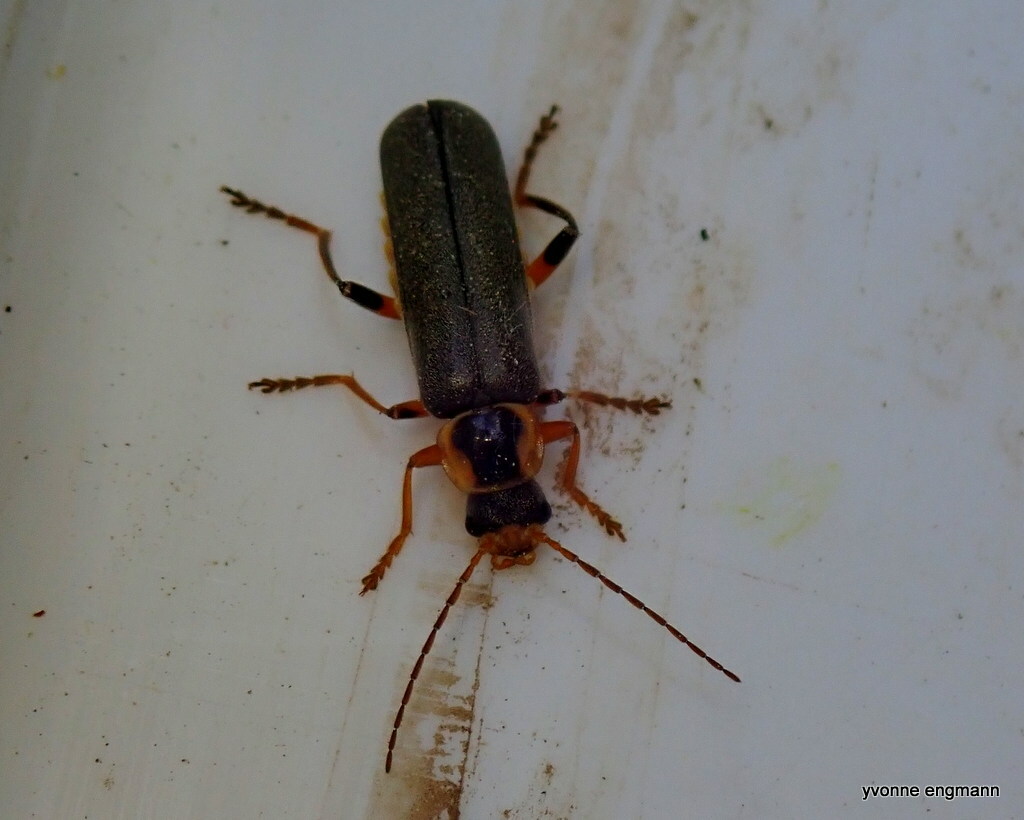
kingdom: Animalia
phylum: Arthropoda
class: Insecta
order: Coleoptera
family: Cantharidae
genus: Cantharis
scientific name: Cantharis nigricans
